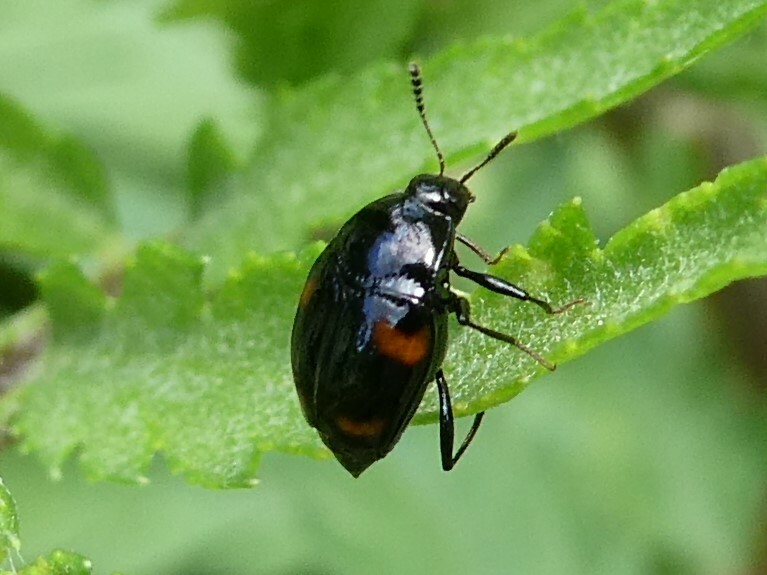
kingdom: Animalia
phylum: Arthropoda
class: Insecta
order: Coleoptera
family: Staphylinidae
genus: Scaphidium
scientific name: Scaphidium quadriguttatum
